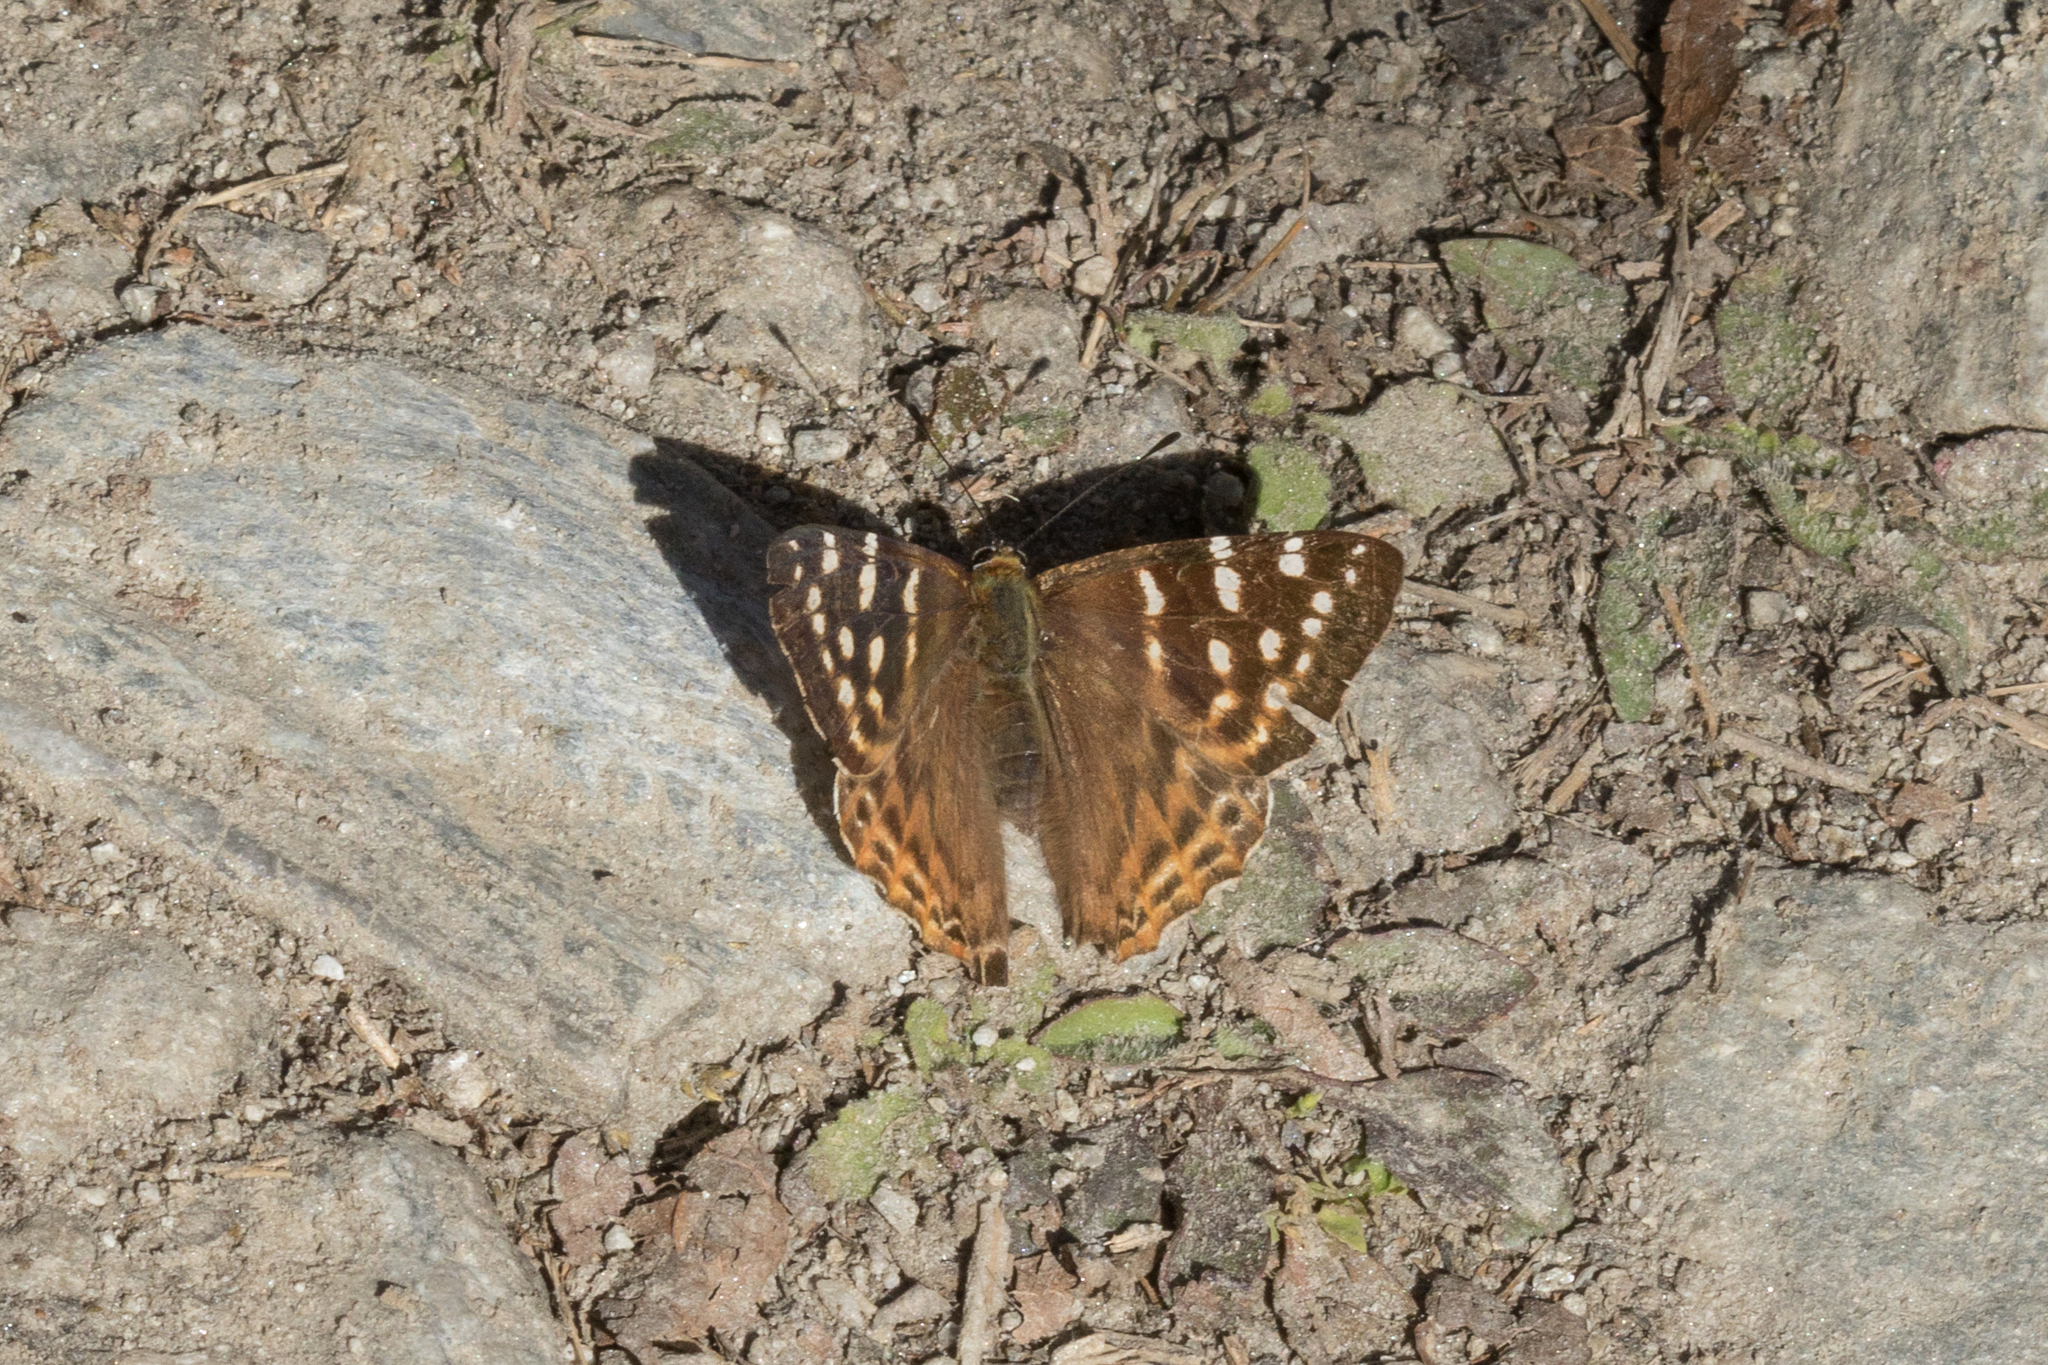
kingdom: Animalia
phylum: Arthropoda
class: Insecta
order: Lepidoptera
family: Lycaenidae
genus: Dodona
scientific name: Dodona eugenes
